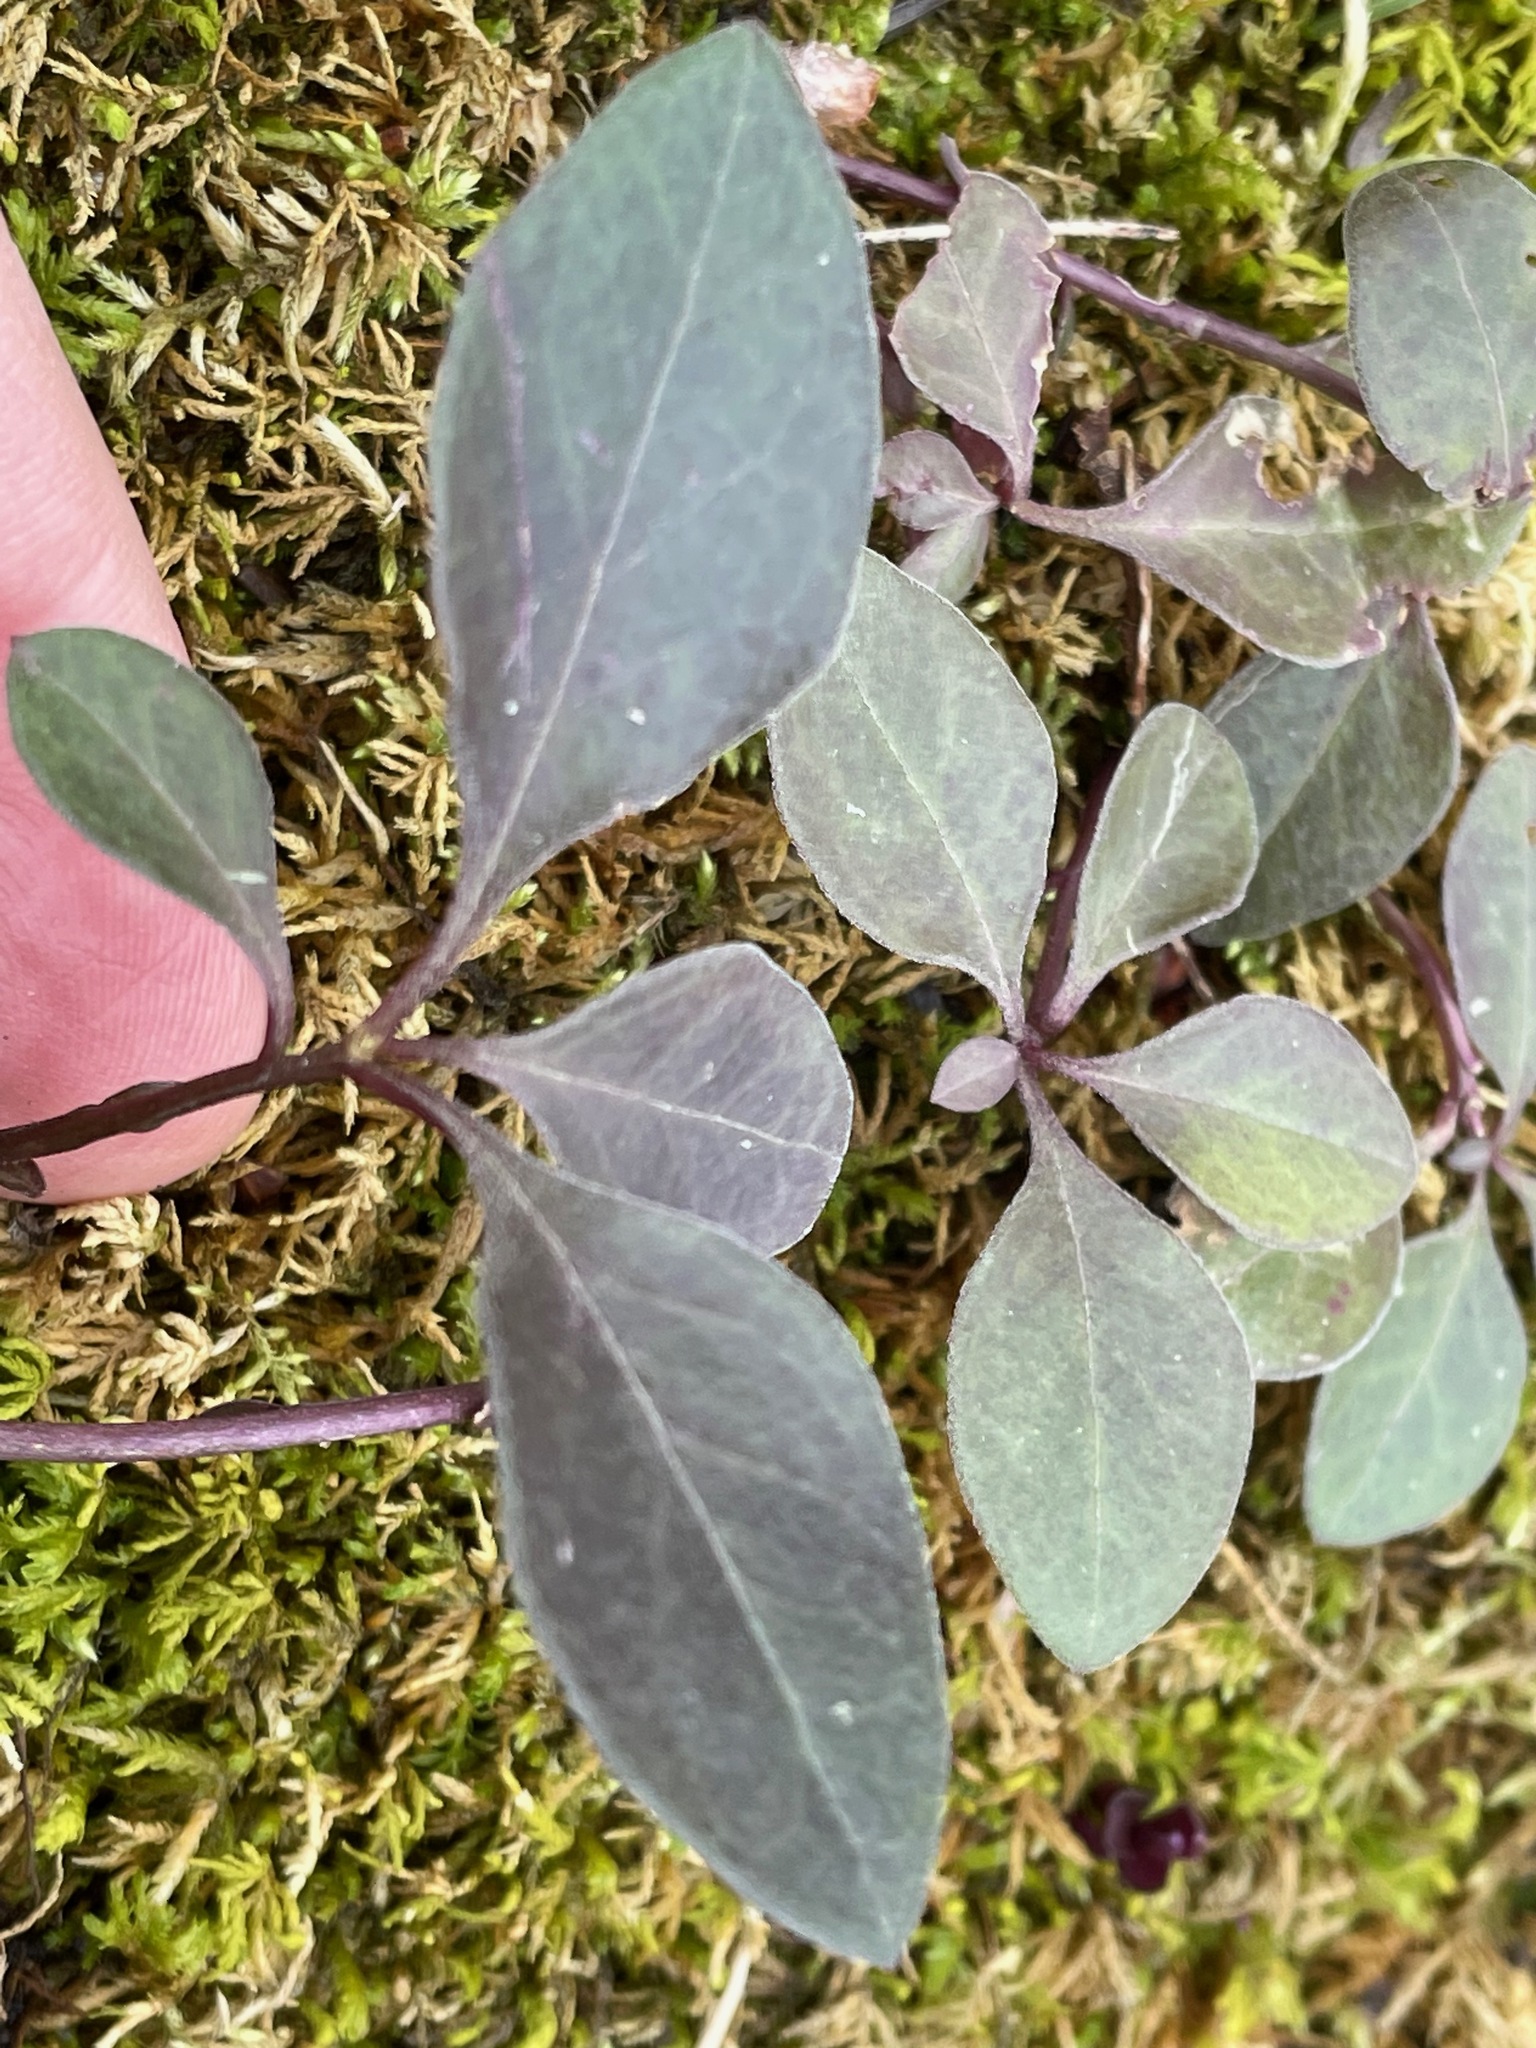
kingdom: Plantae
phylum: Tracheophyta
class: Magnoliopsida
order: Fabales
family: Polygalaceae
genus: Polygaloides
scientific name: Polygaloides paucifolia
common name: Bird-on-the-wing
